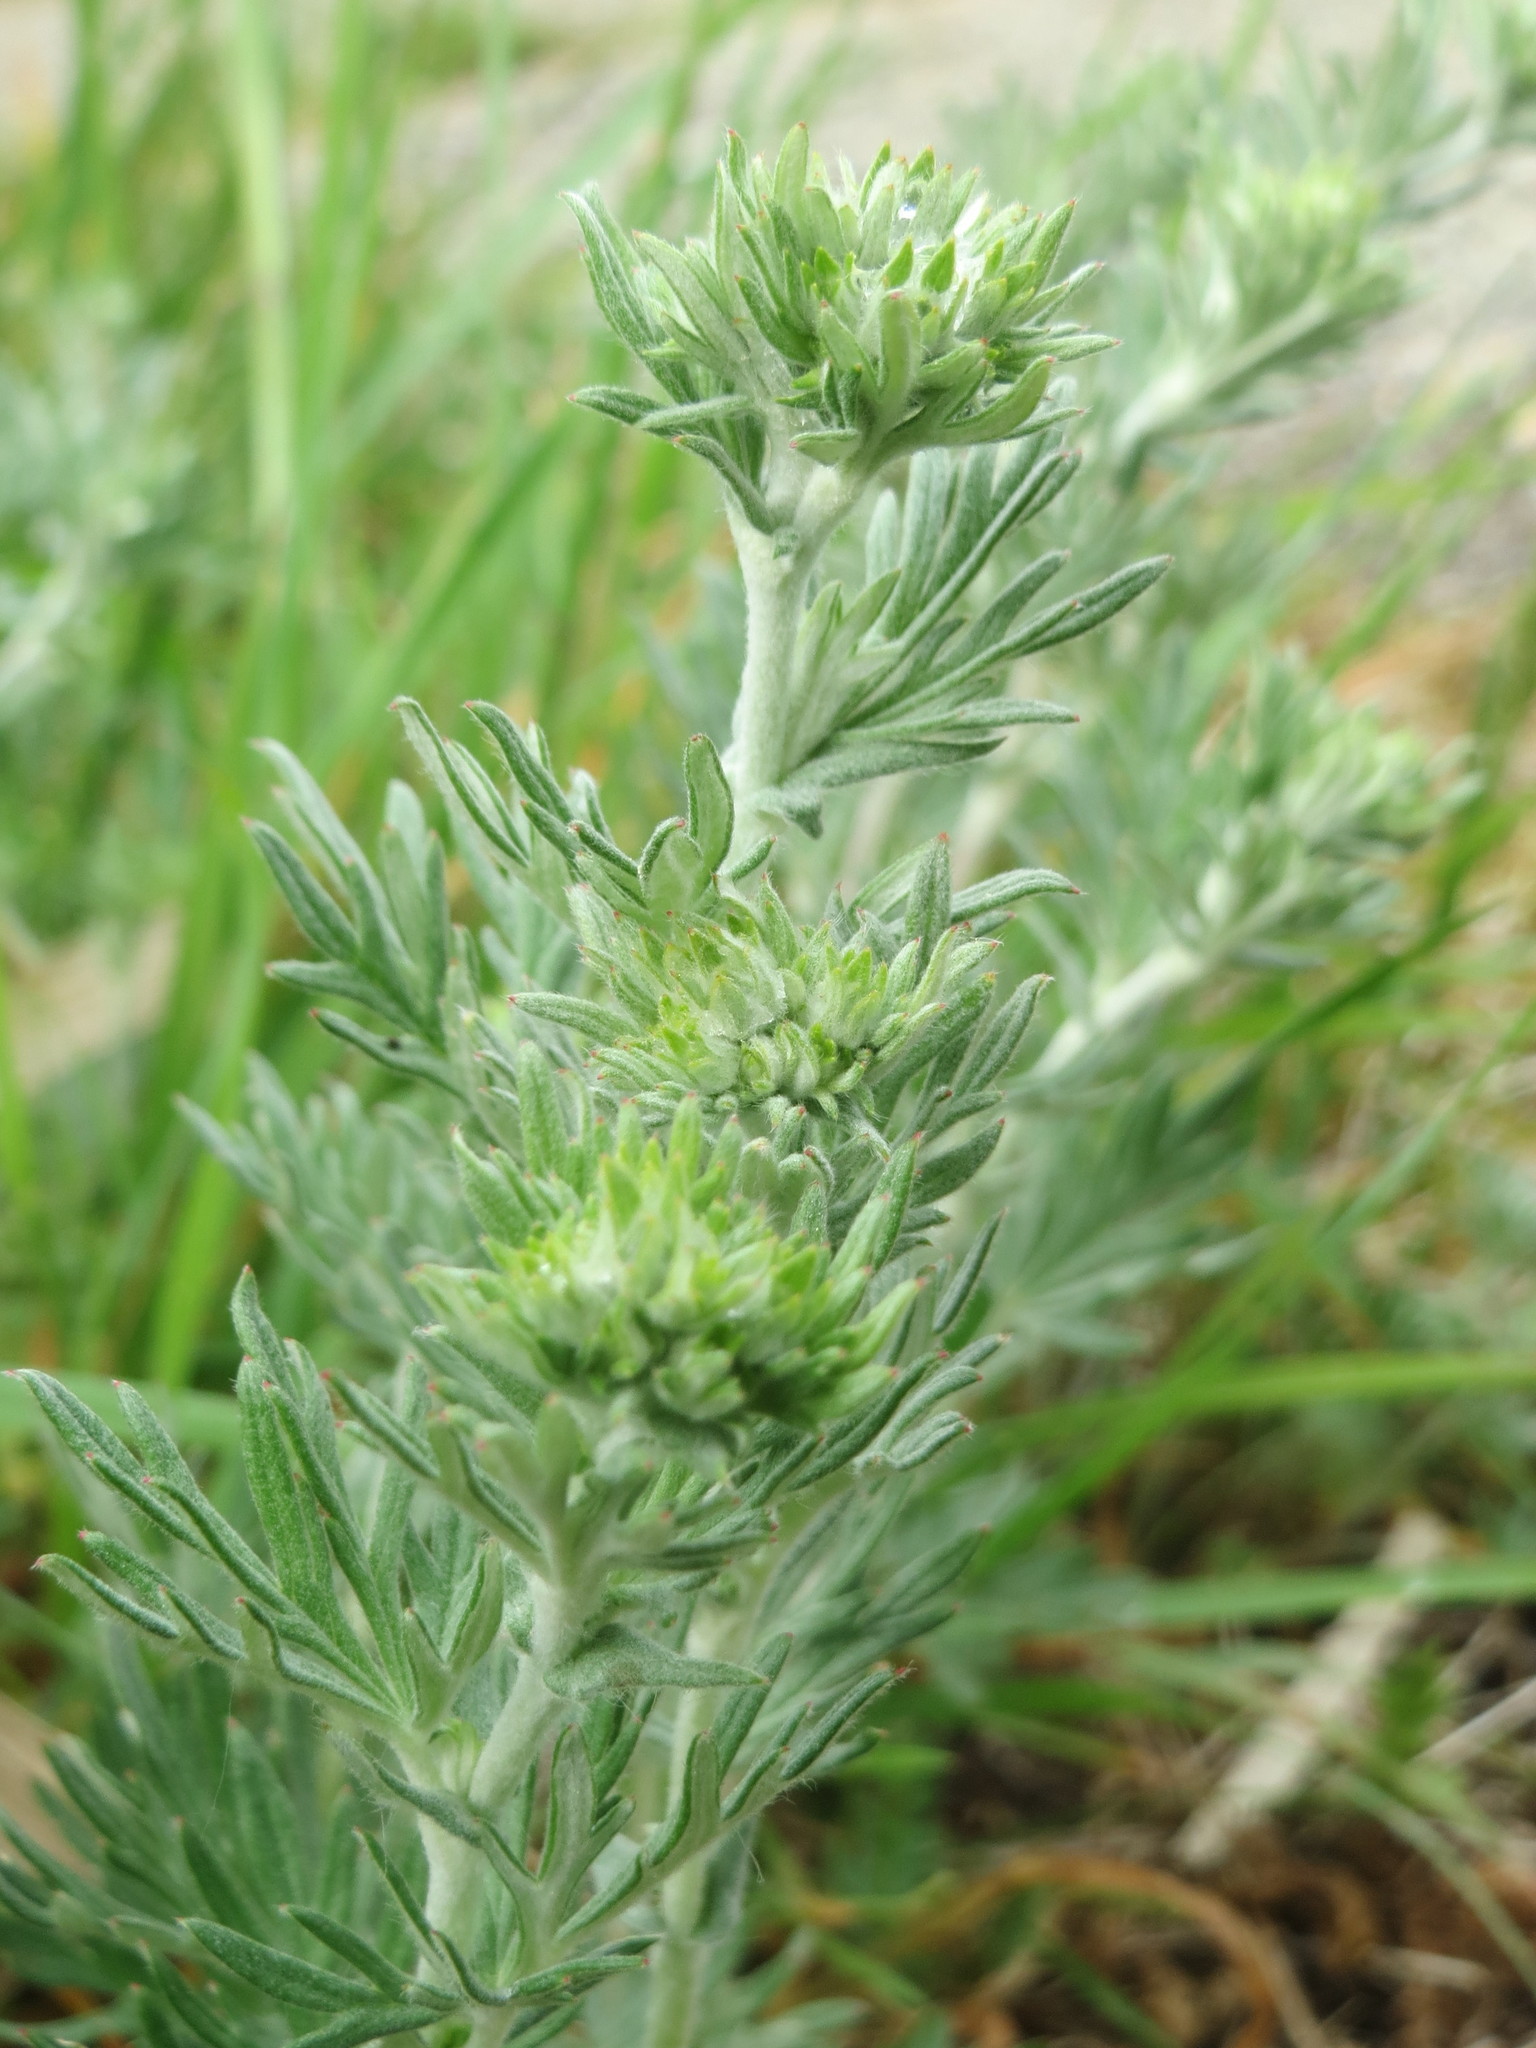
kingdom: Plantae
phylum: Tracheophyta
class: Magnoliopsida
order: Rosales
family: Rosaceae
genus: Potentilla
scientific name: Potentilla argentea
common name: Hoary cinquefoil
